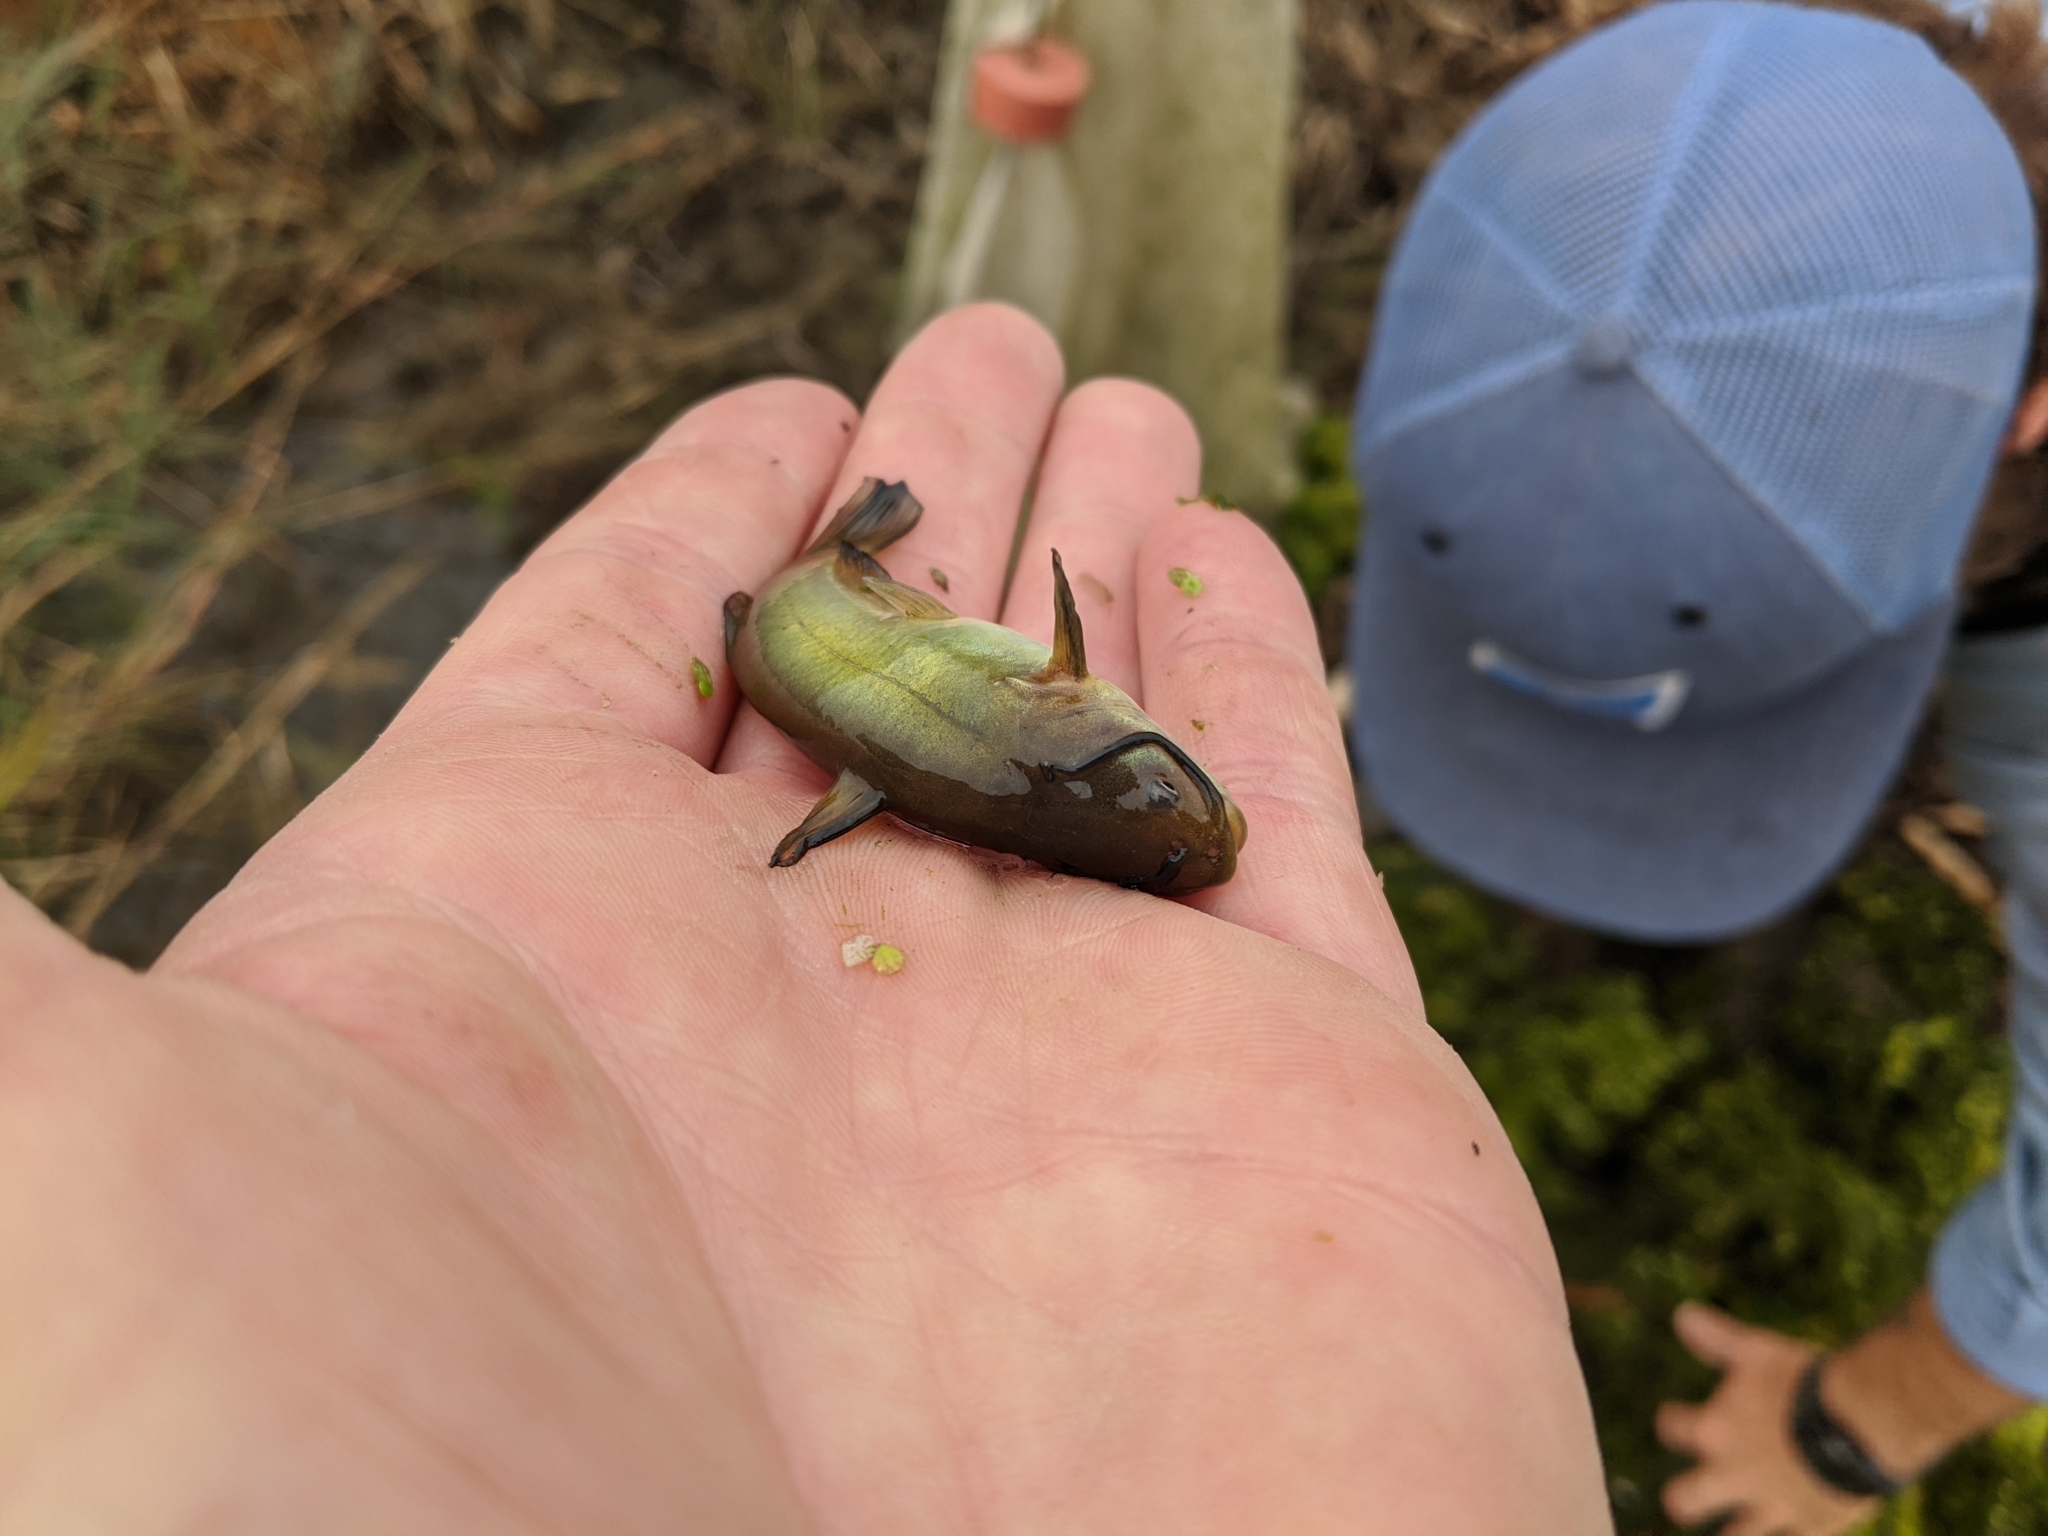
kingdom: Animalia
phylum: Chordata
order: Siluriformes
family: Ictaluridae
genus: Ameiurus
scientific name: Ameiurus melas
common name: Black bullhead
